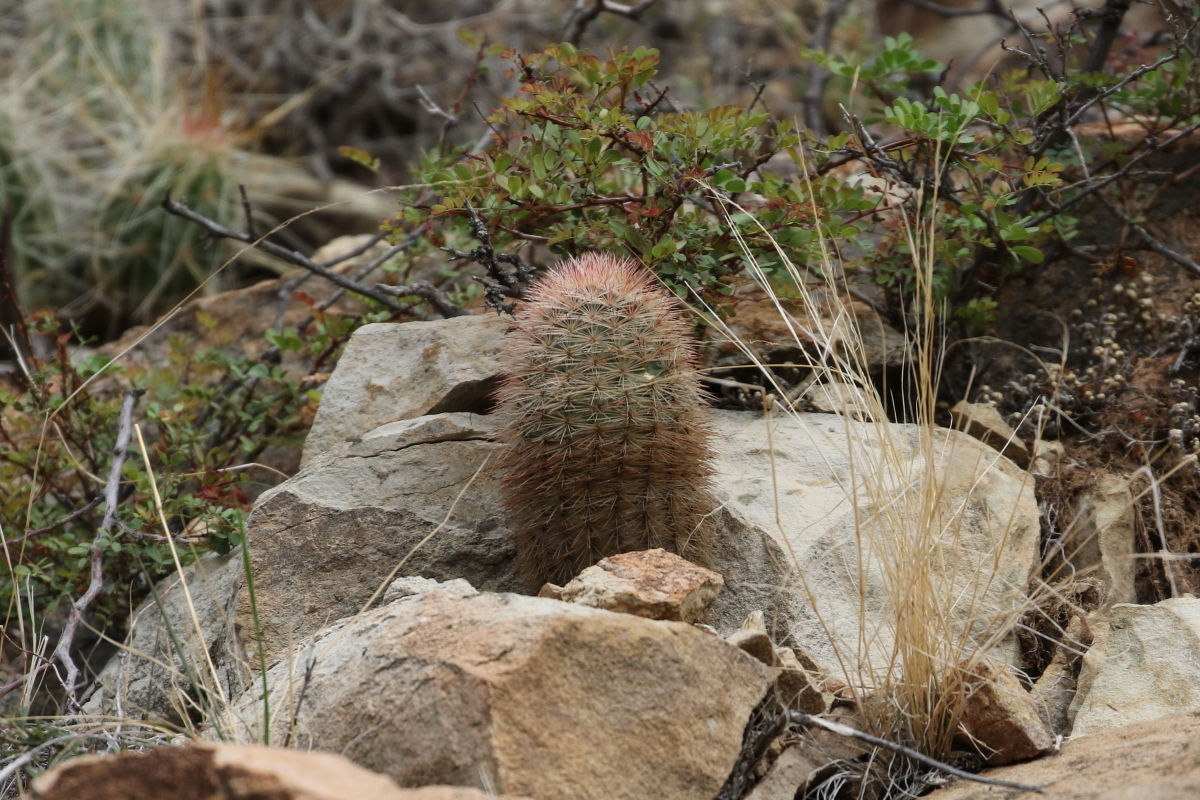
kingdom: Plantae
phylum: Tracheophyta
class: Magnoliopsida
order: Caryophyllales
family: Cactaceae
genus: Echinocereus
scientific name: Echinocereus russanthus
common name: Brownspine hedgehog cactus
